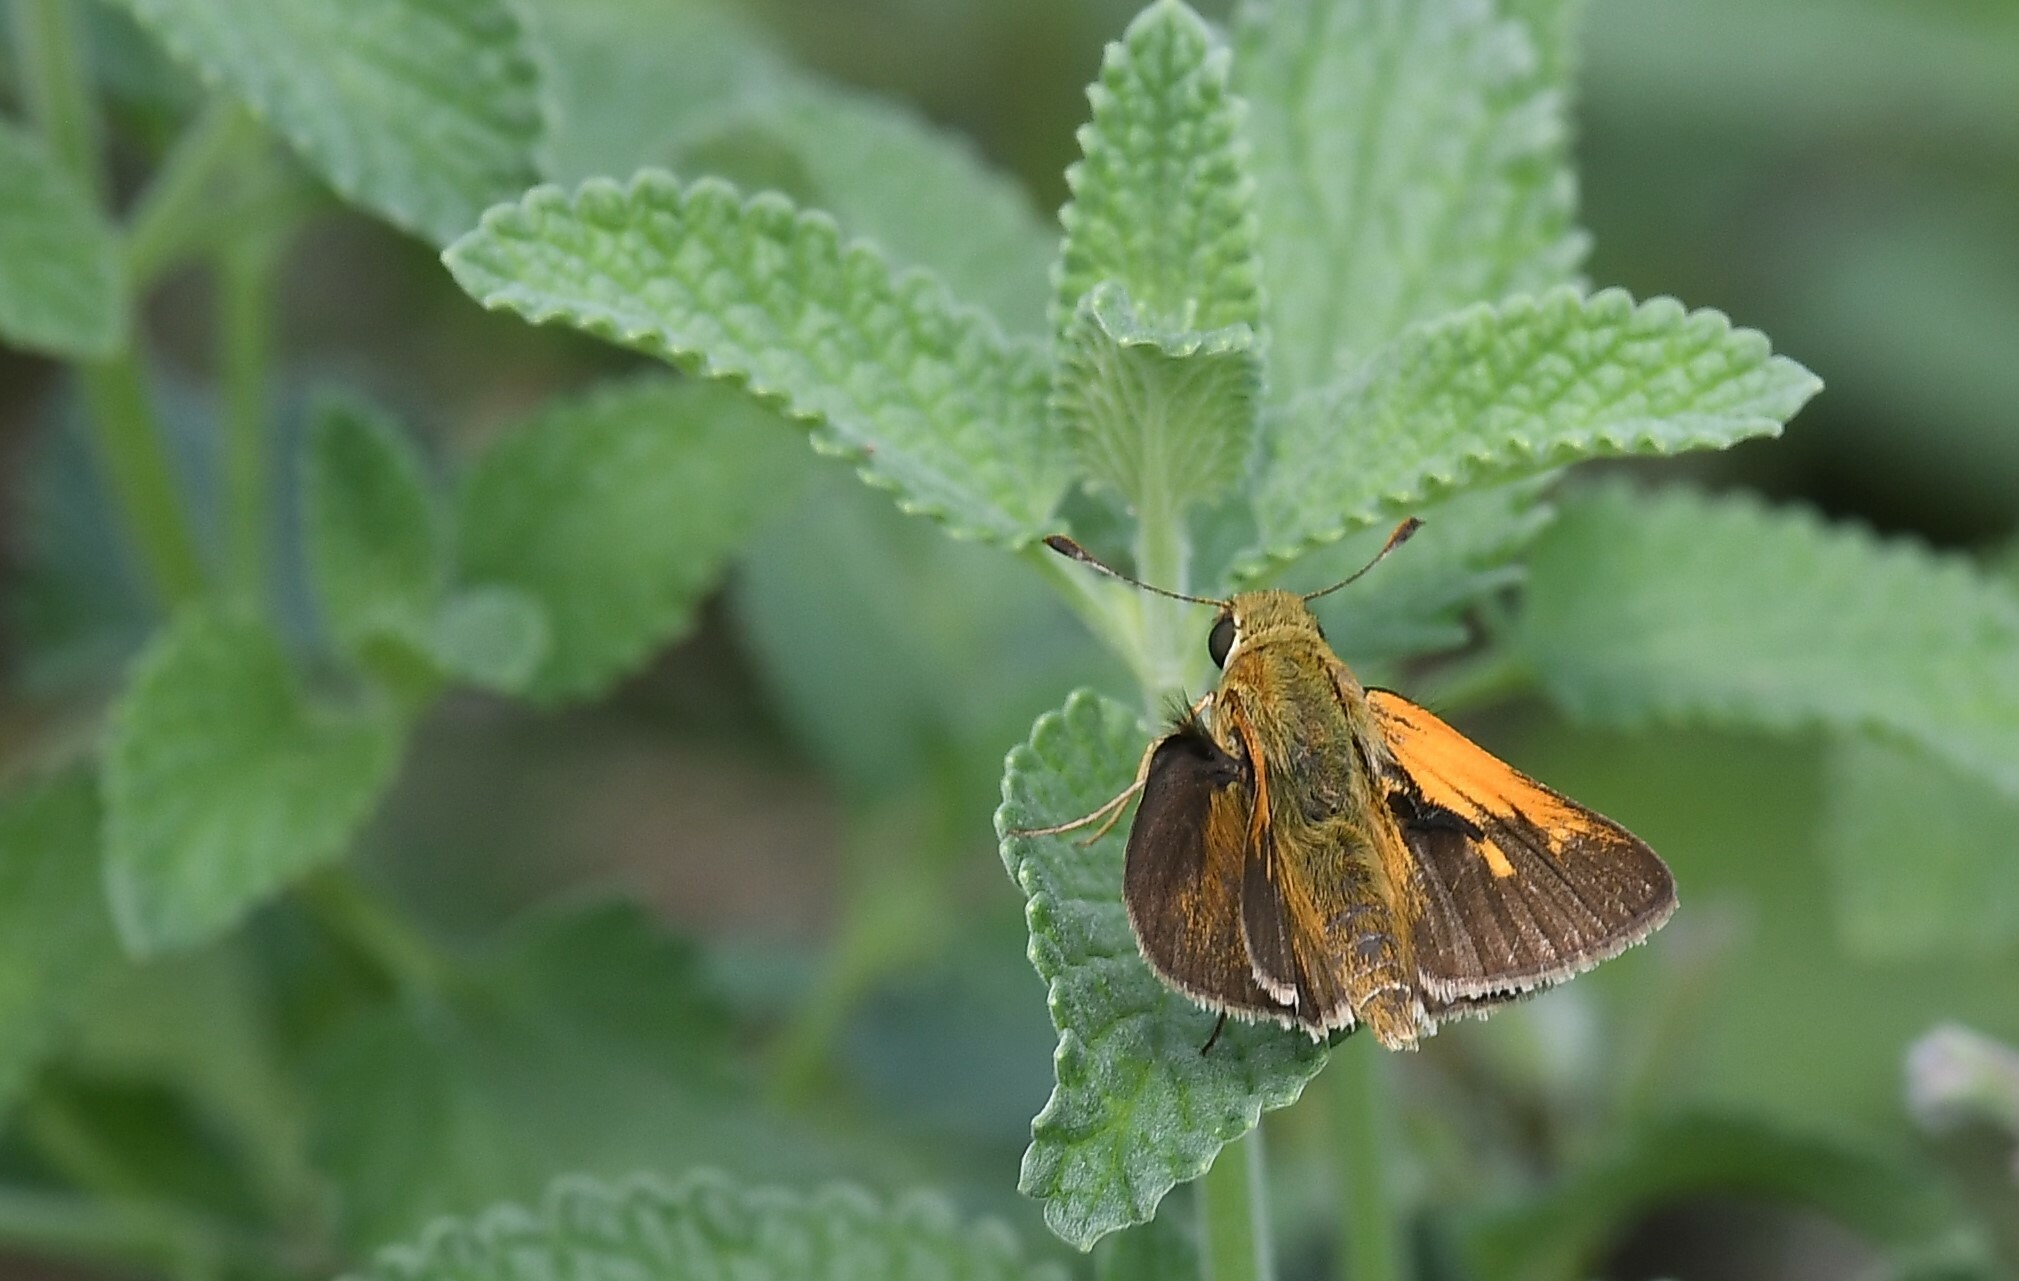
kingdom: Animalia
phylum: Arthropoda
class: Insecta
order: Lepidoptera
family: Hesperiidae
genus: Polites
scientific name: Polites themistocles
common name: Tawny-edged skipper
